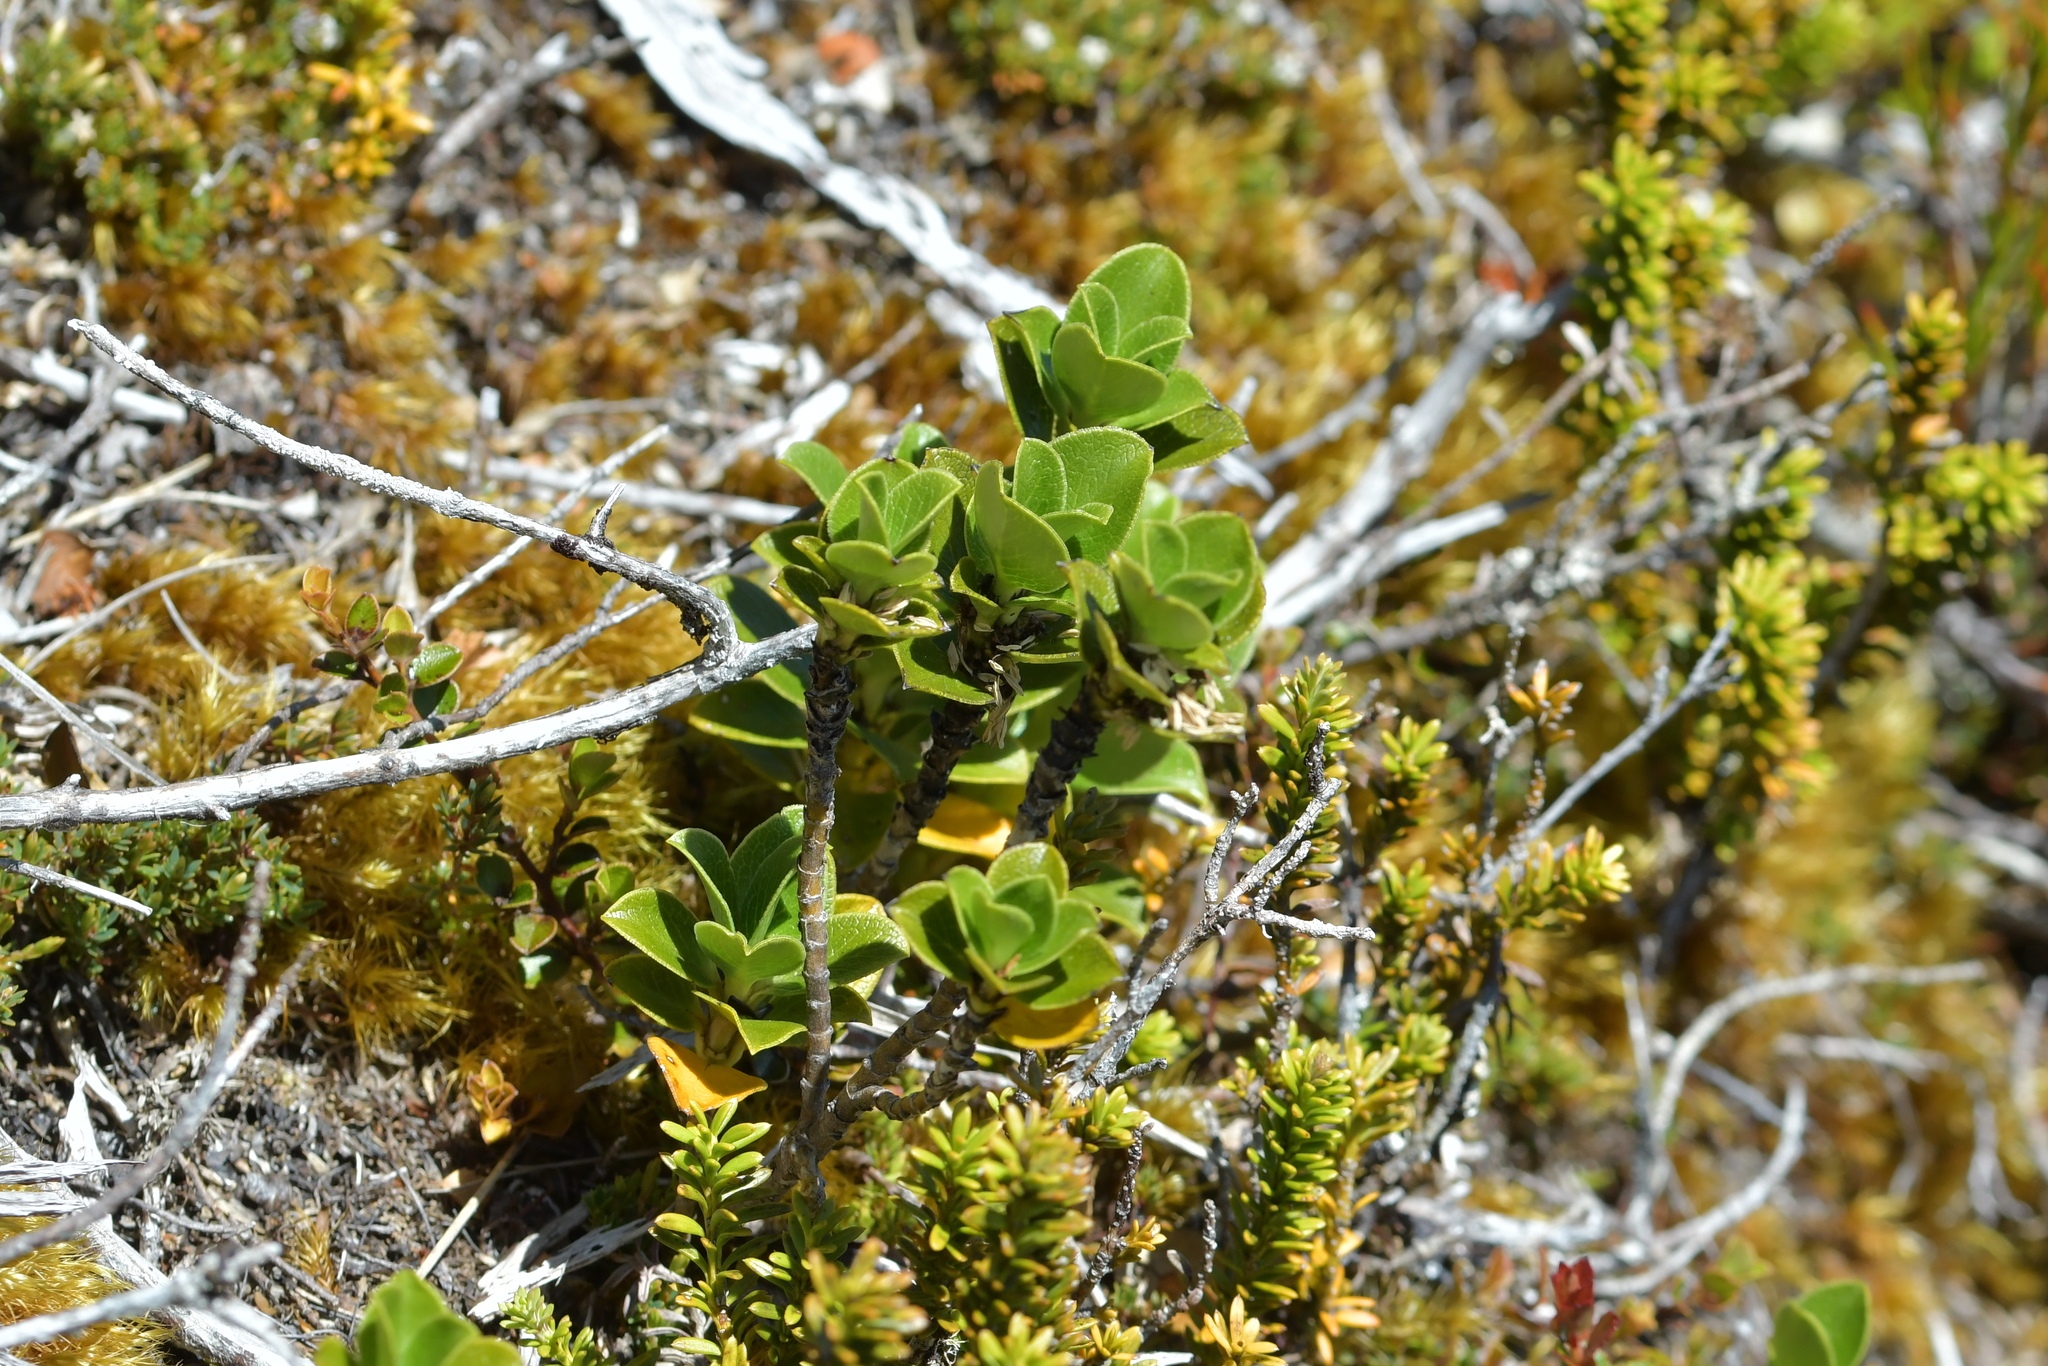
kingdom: Plantae
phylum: Tracheophyta
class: Magnoliopsida
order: Gentianales
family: Rubiaceae
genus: Coprosma
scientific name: Coprosma serrulata
